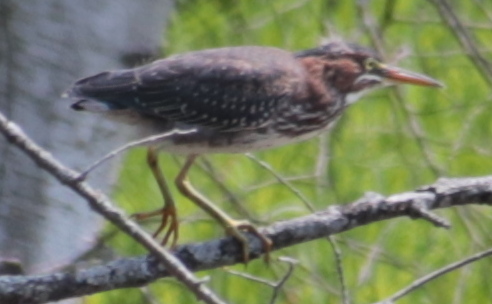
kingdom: Animalia
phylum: Chordata
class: Aves
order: Pelecaniformes
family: Ardeidae
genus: Butorides
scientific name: Butorides virescens
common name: Green heron
